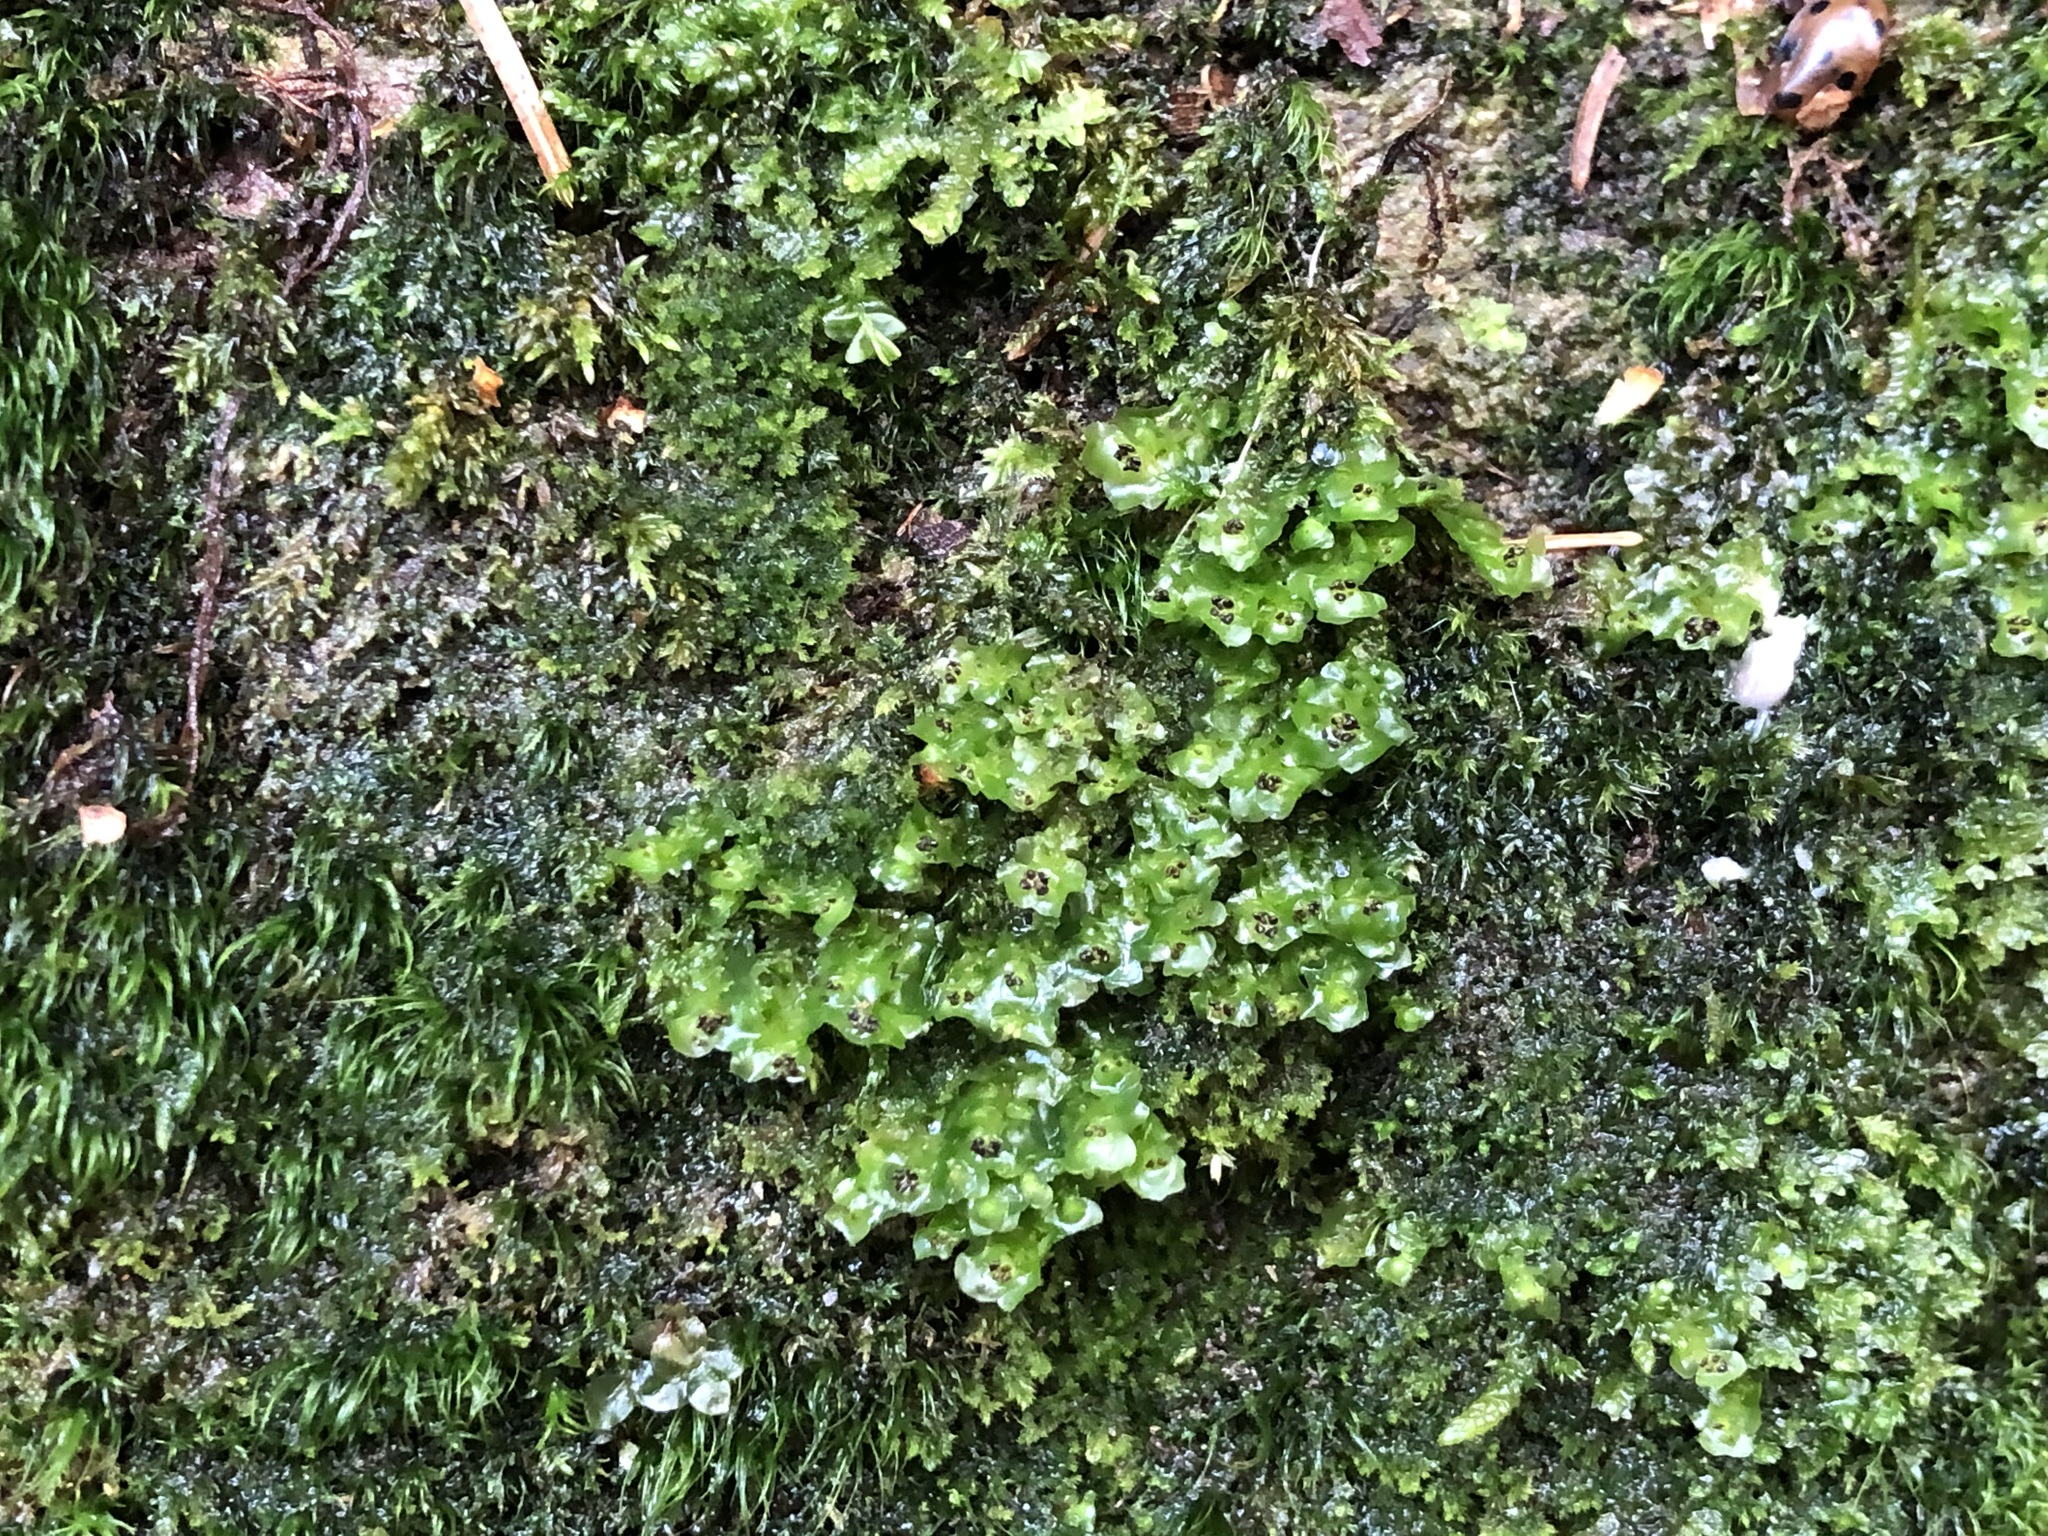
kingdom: Plantae
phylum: Marchantiophyta
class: Jungermanniopsida
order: Jungermanniales
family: Scapaniaceae
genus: Scapania
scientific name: Scapania nemorea
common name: Grove earwort
